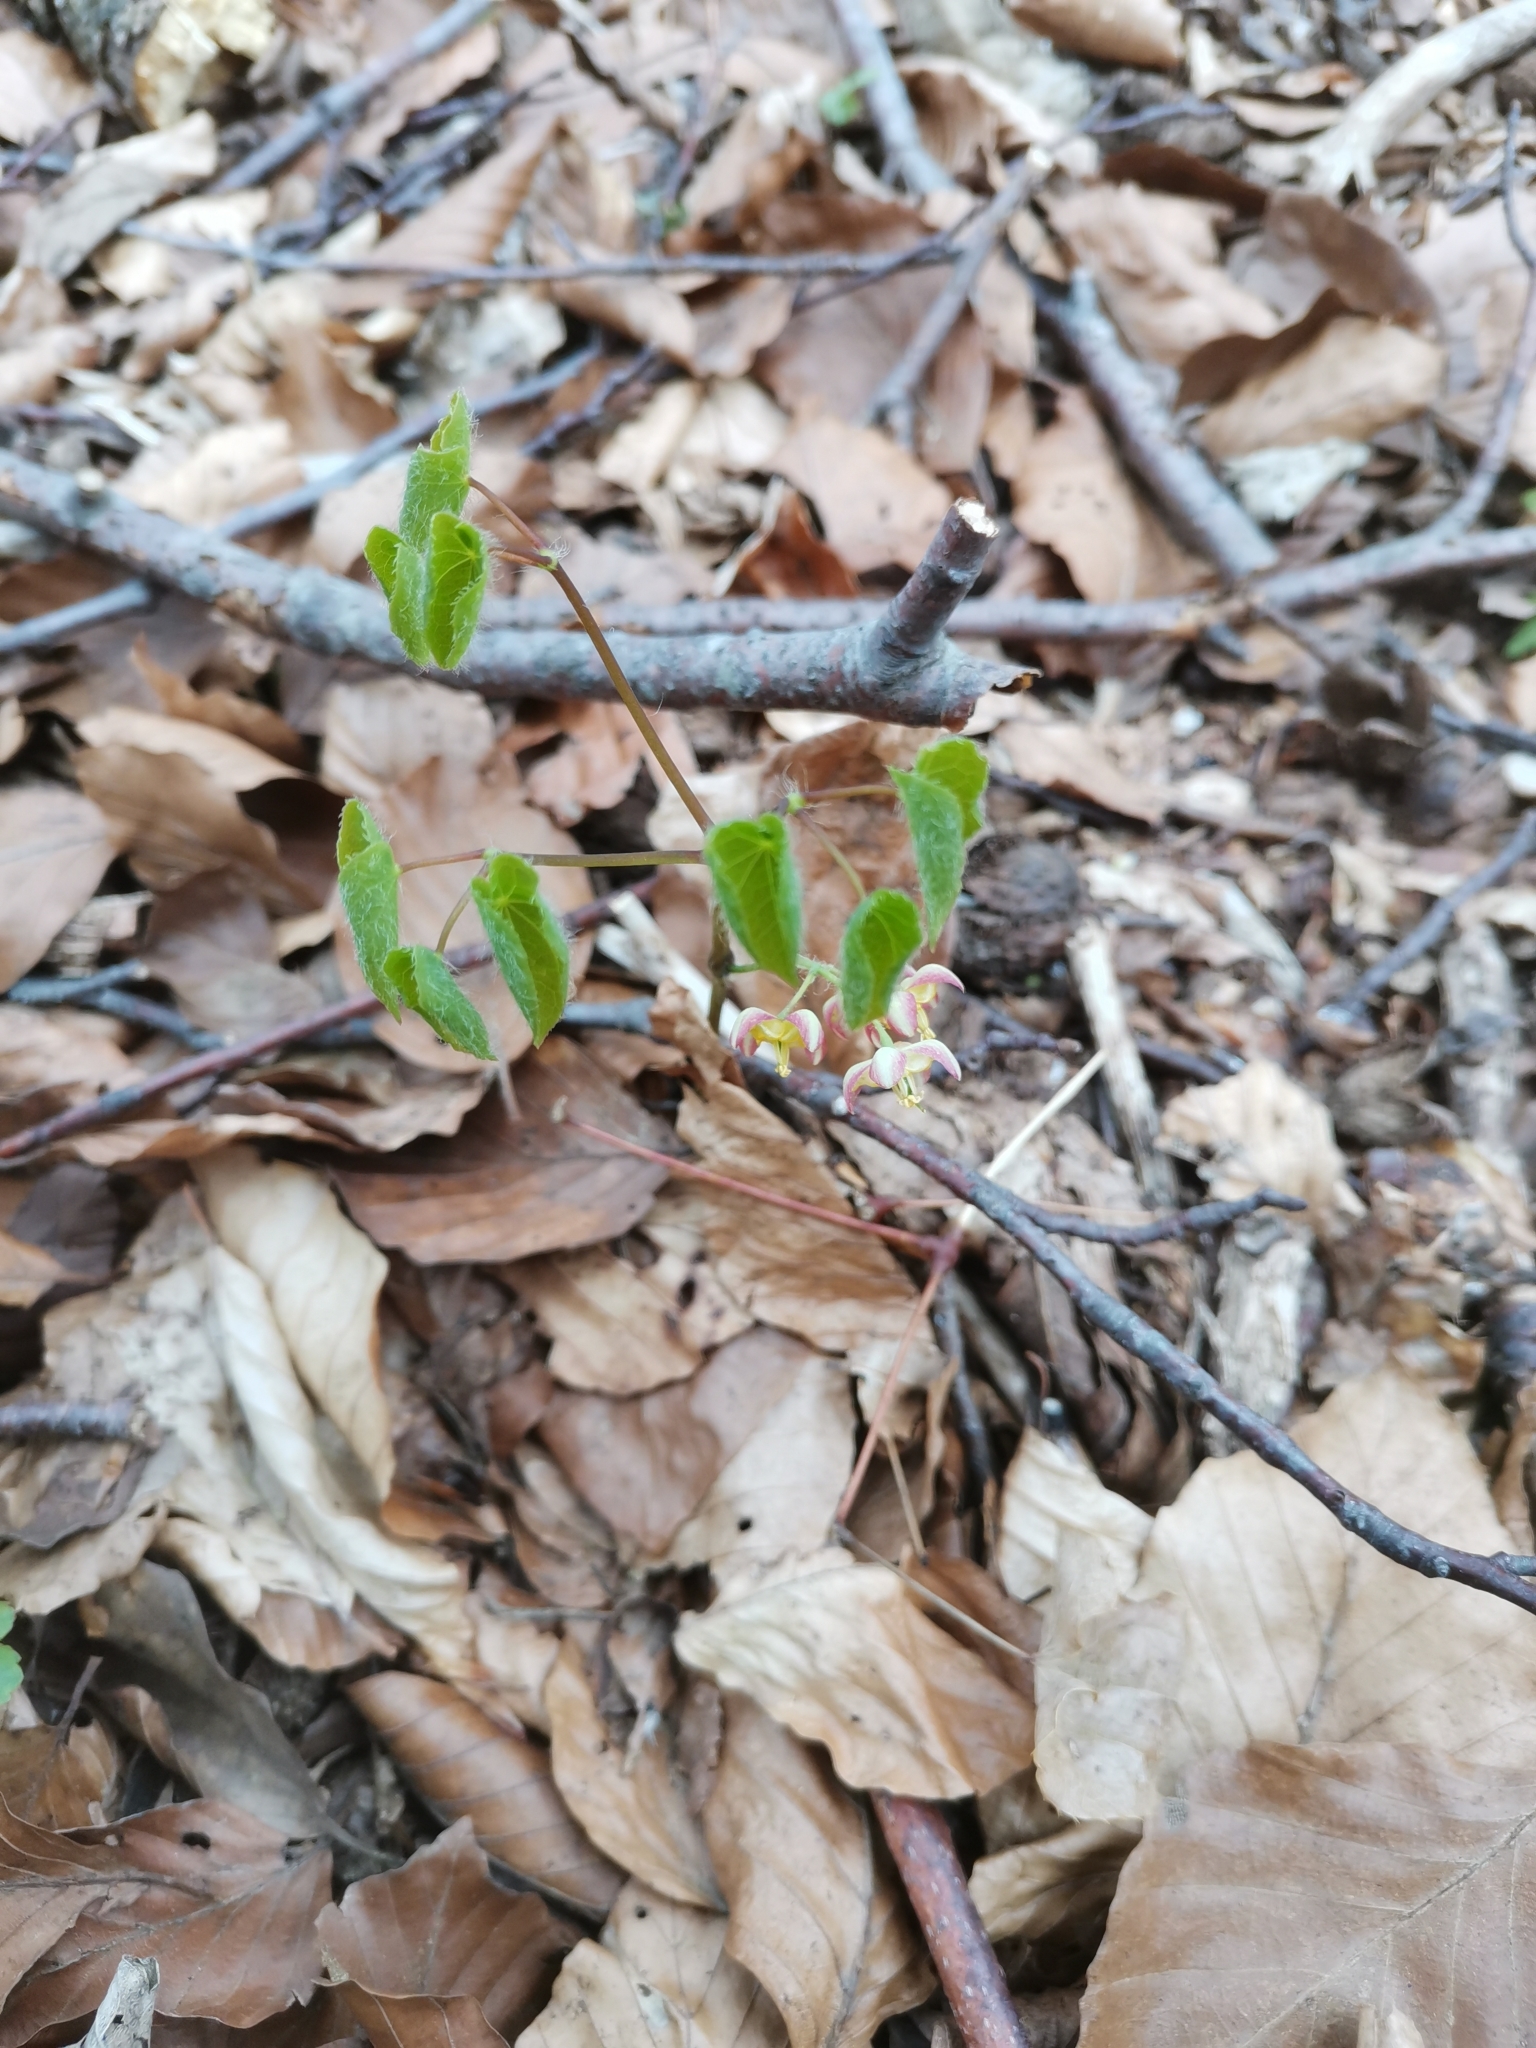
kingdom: Plantae
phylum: Tracheophyta
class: Magnoliopsida
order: Ranunculales
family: Berberidaceae
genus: Epimedium
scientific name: Epimedium alpinum
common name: Barrenwort
